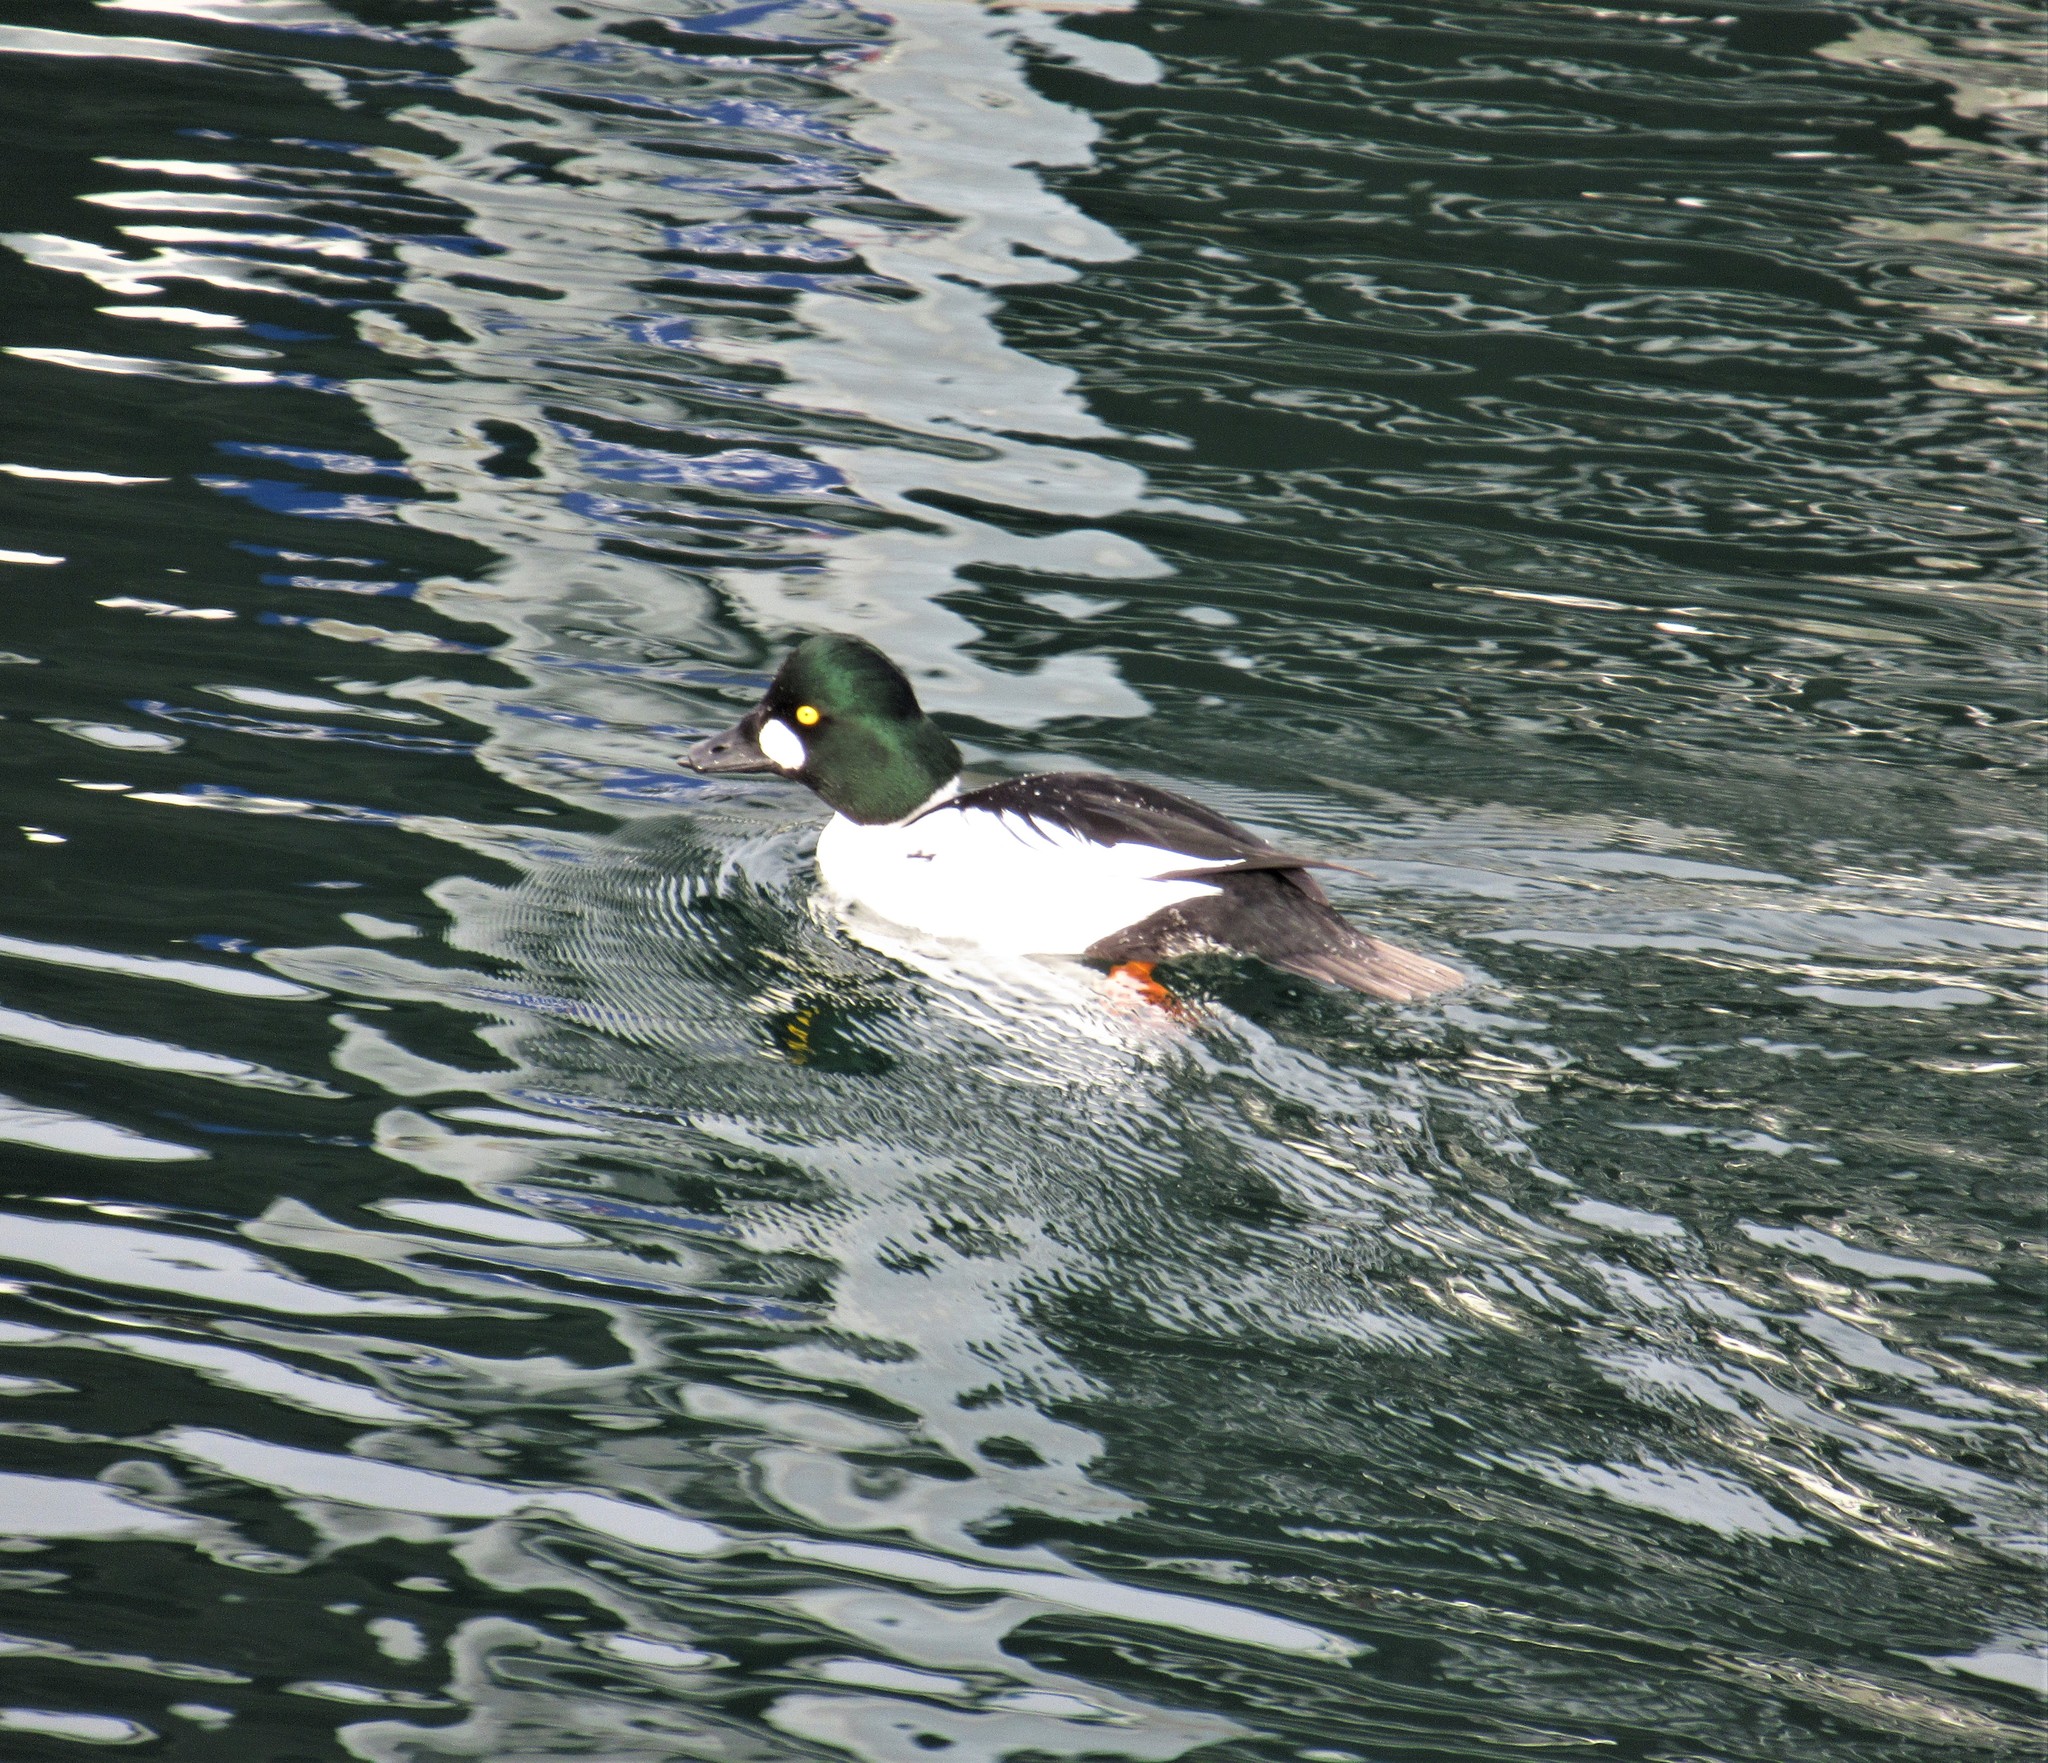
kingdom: Animalia
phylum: Chordata
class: Aves
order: Anseriformes
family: Anatidae
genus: Bucephala
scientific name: Bucephala clangula
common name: Common goldeneye
